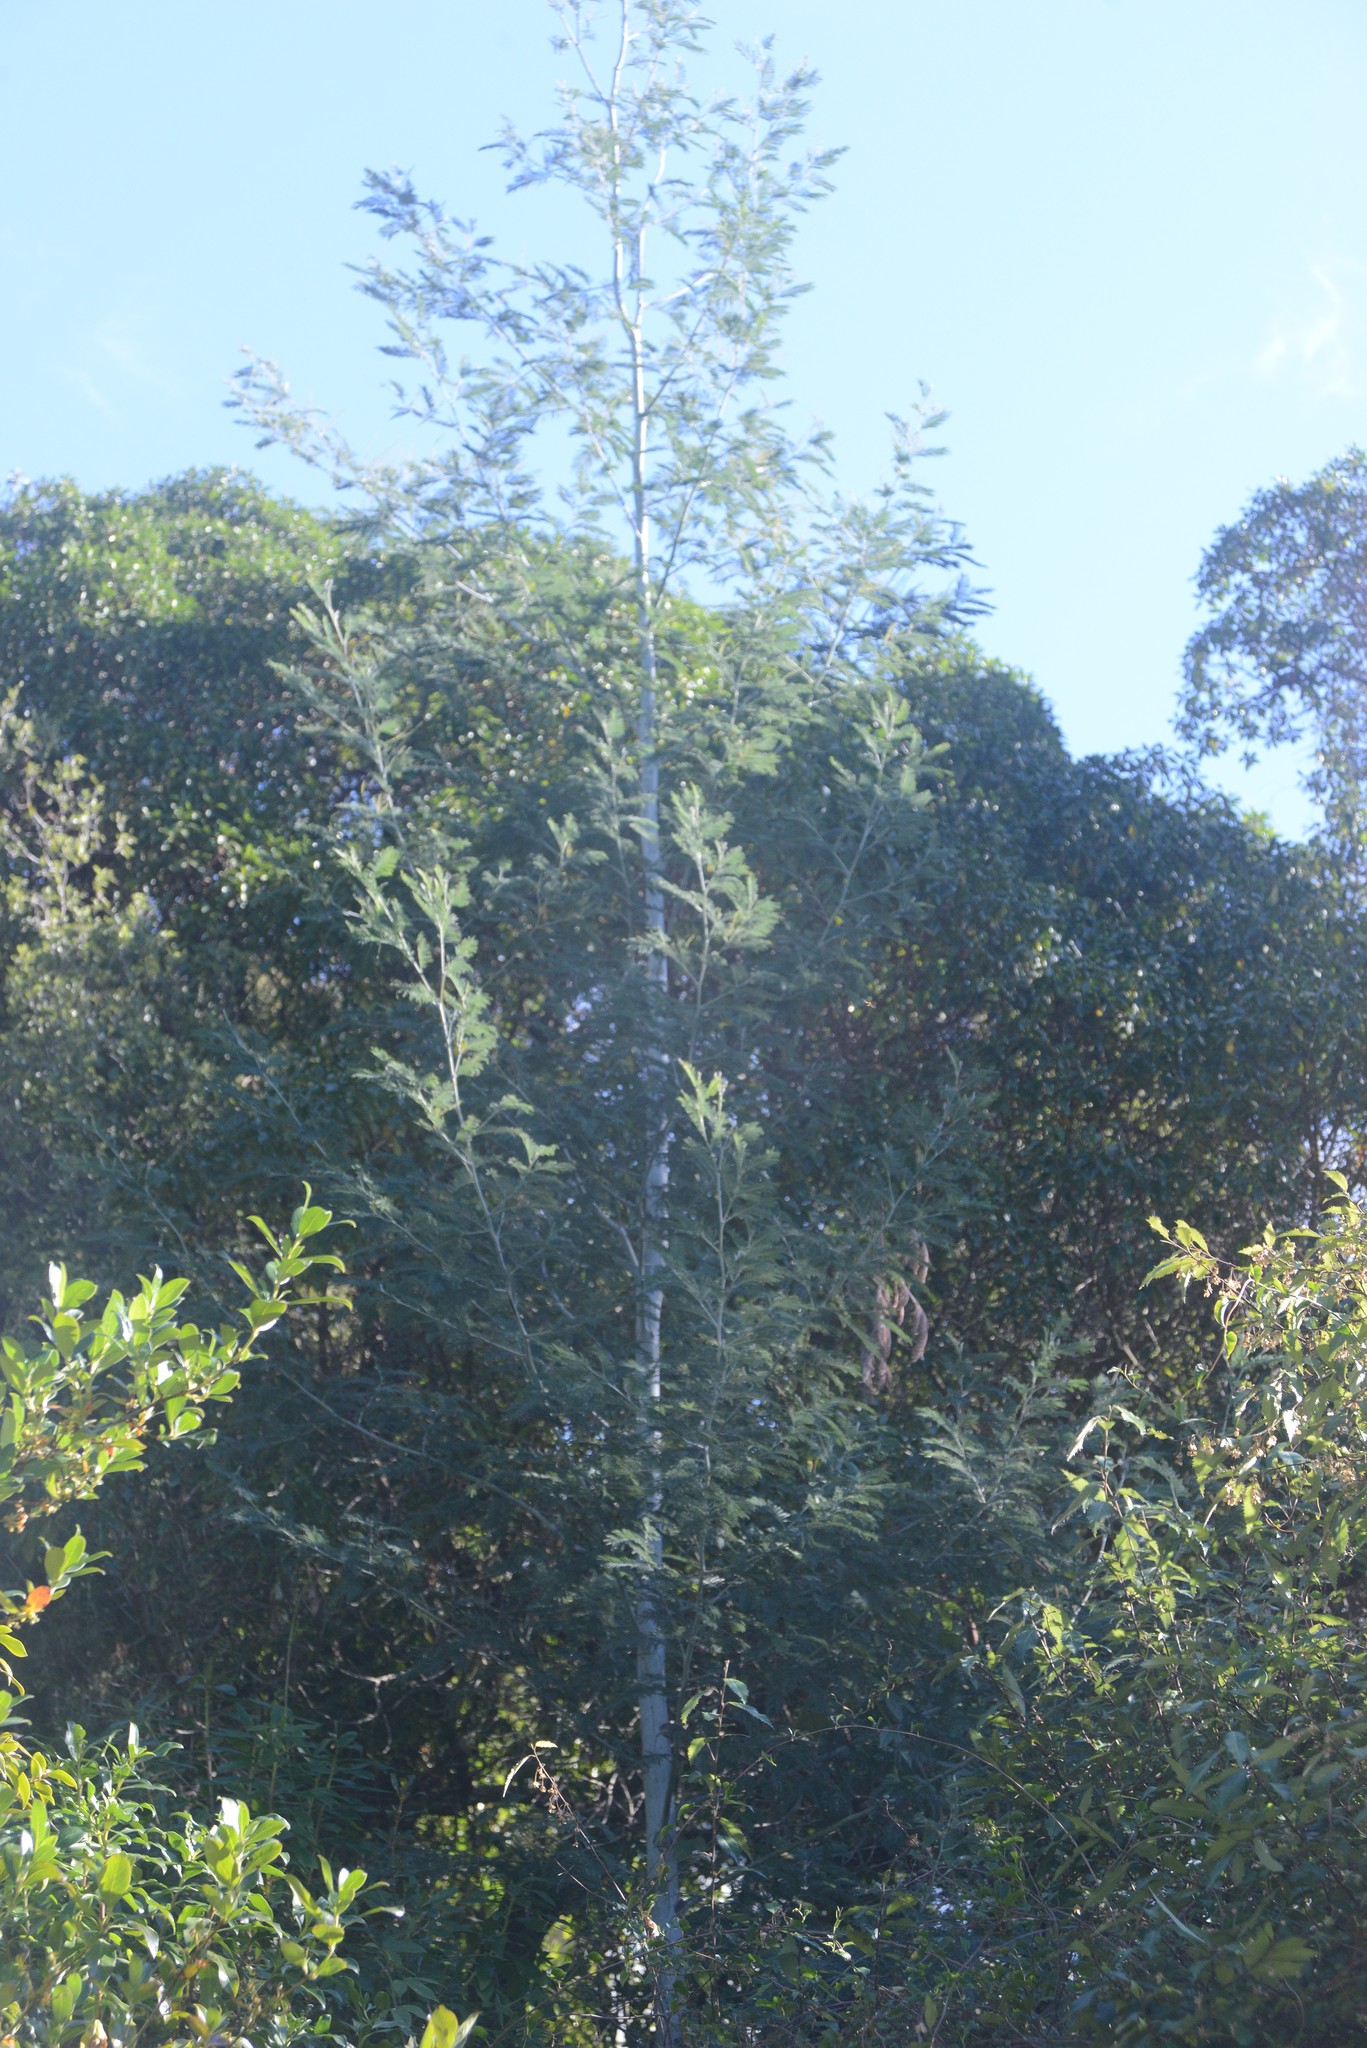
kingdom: Plantae
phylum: Tracheophyta
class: Magnoliopsida
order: Fabales
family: Fabaceae
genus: Acacia
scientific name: Acacia dealbata
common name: Silver wattle
